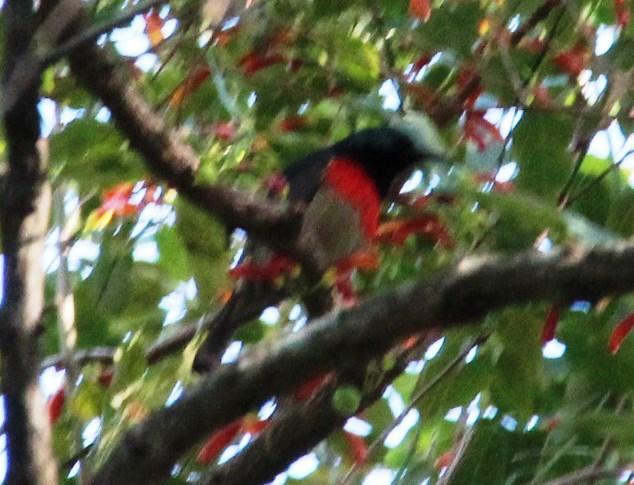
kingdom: Animalia
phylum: Chordata
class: Aves
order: Passeriformes
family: Nectariniidae
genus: Cinnyris
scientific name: Cinnyris afer
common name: Greater double-collared sunbird
